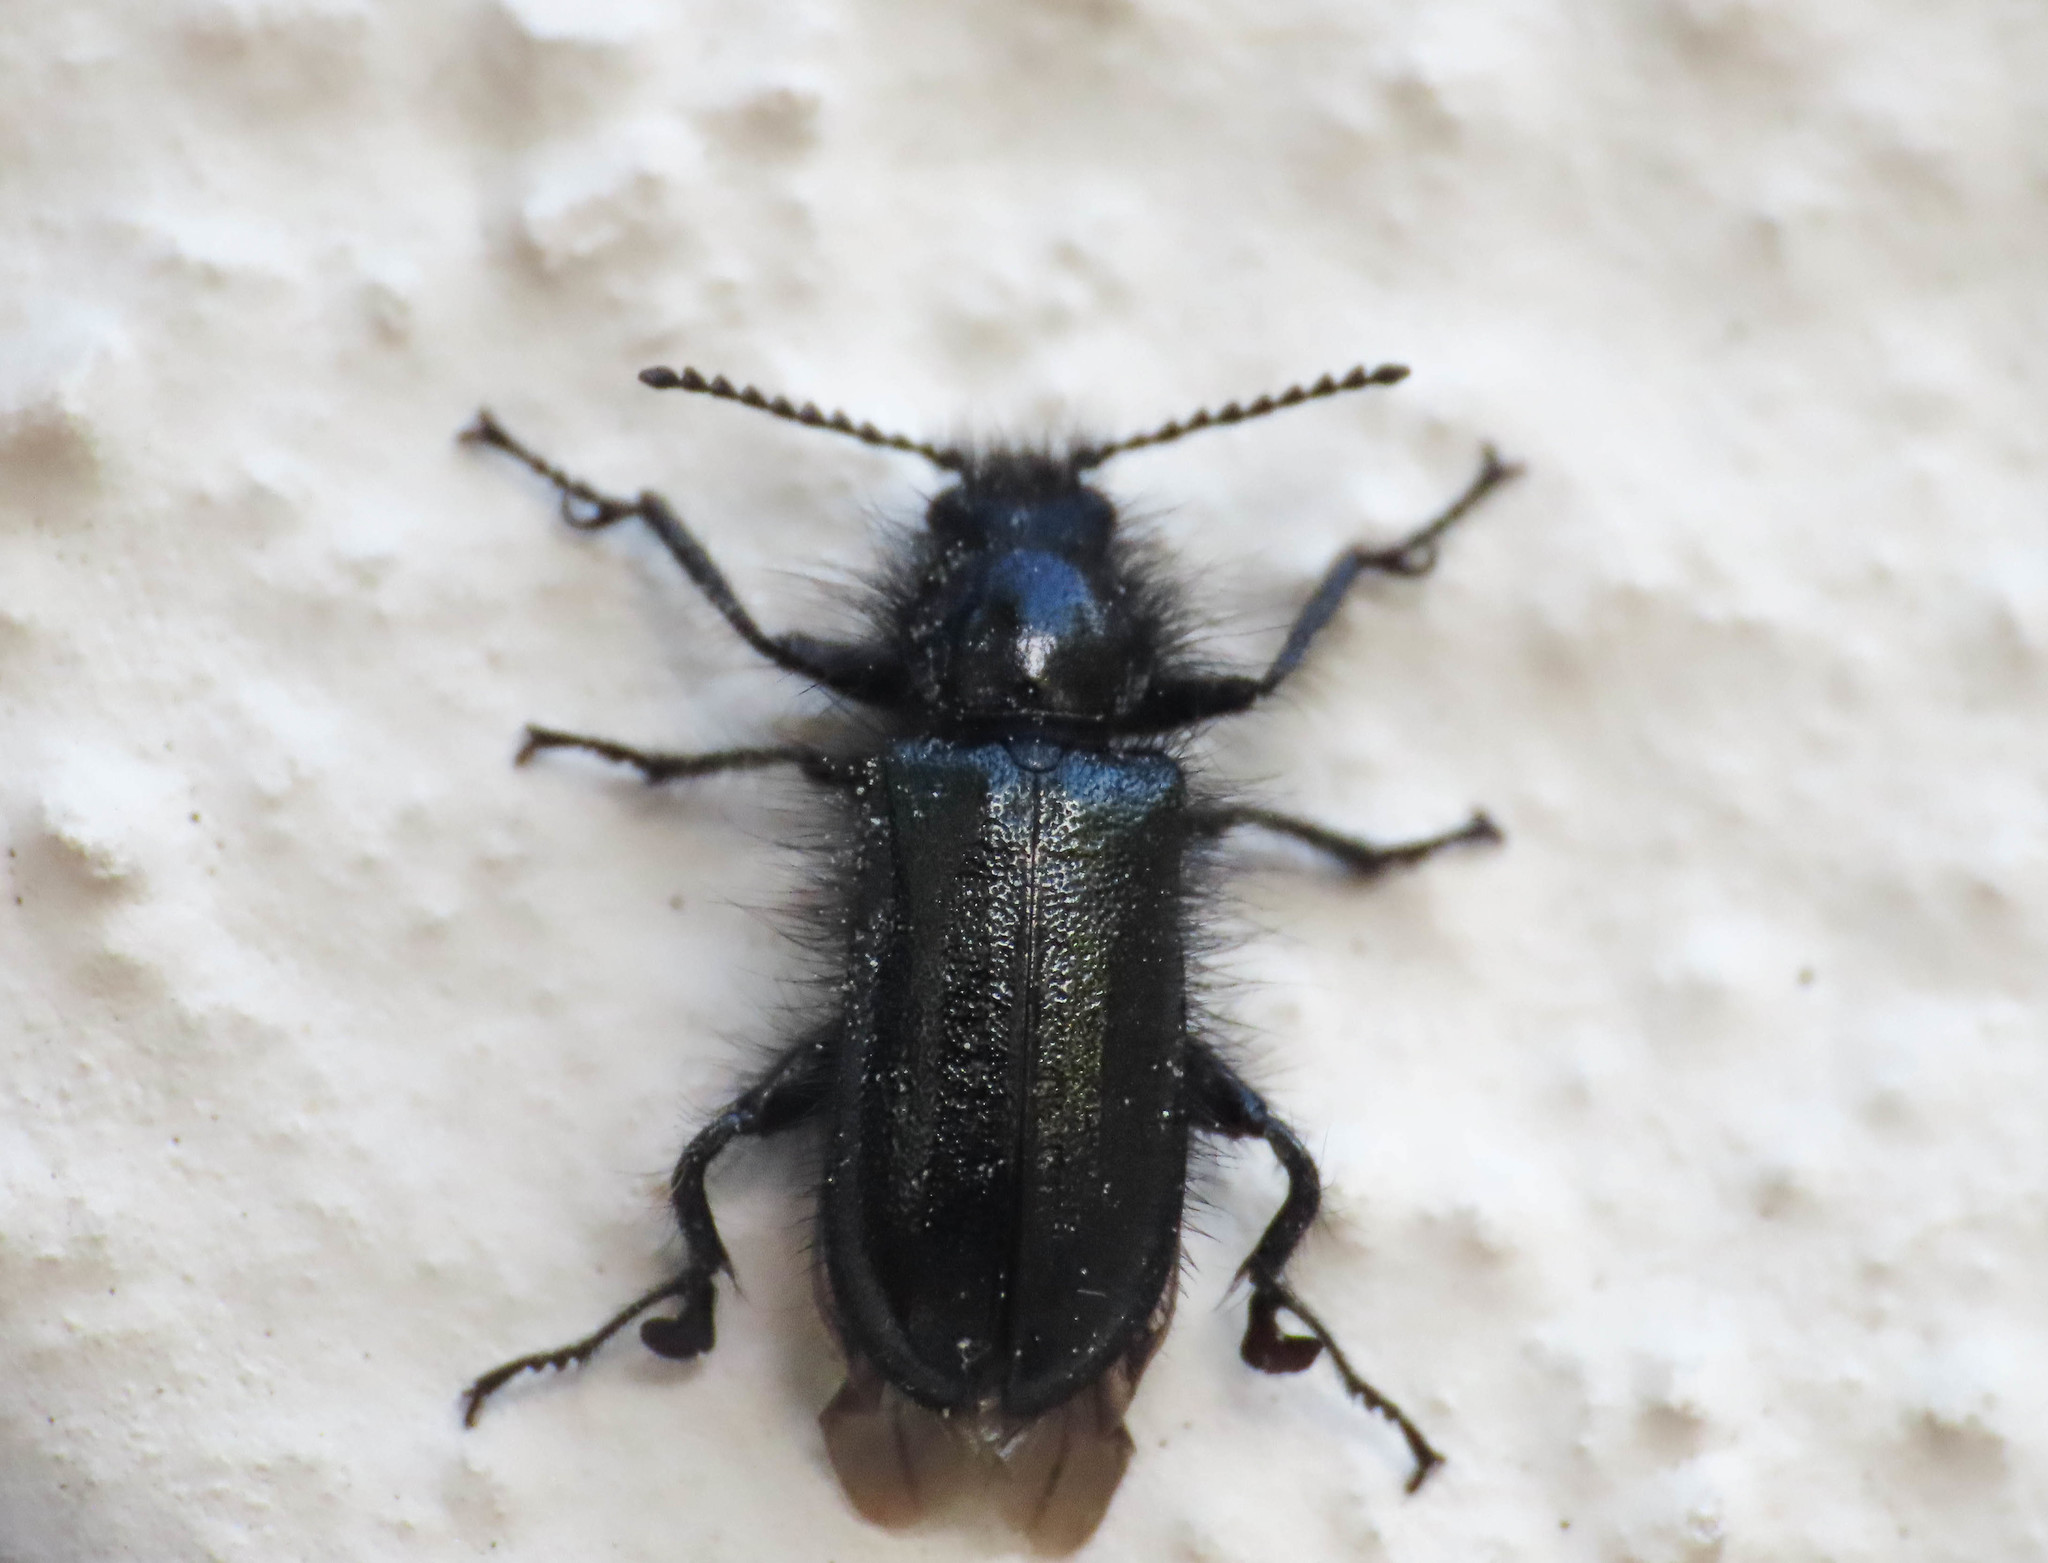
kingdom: Animalia
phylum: Arthropoda
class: Insecta
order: Coleoptera
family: Melyridae
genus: Enicopus
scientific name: Enicopus pilosus
